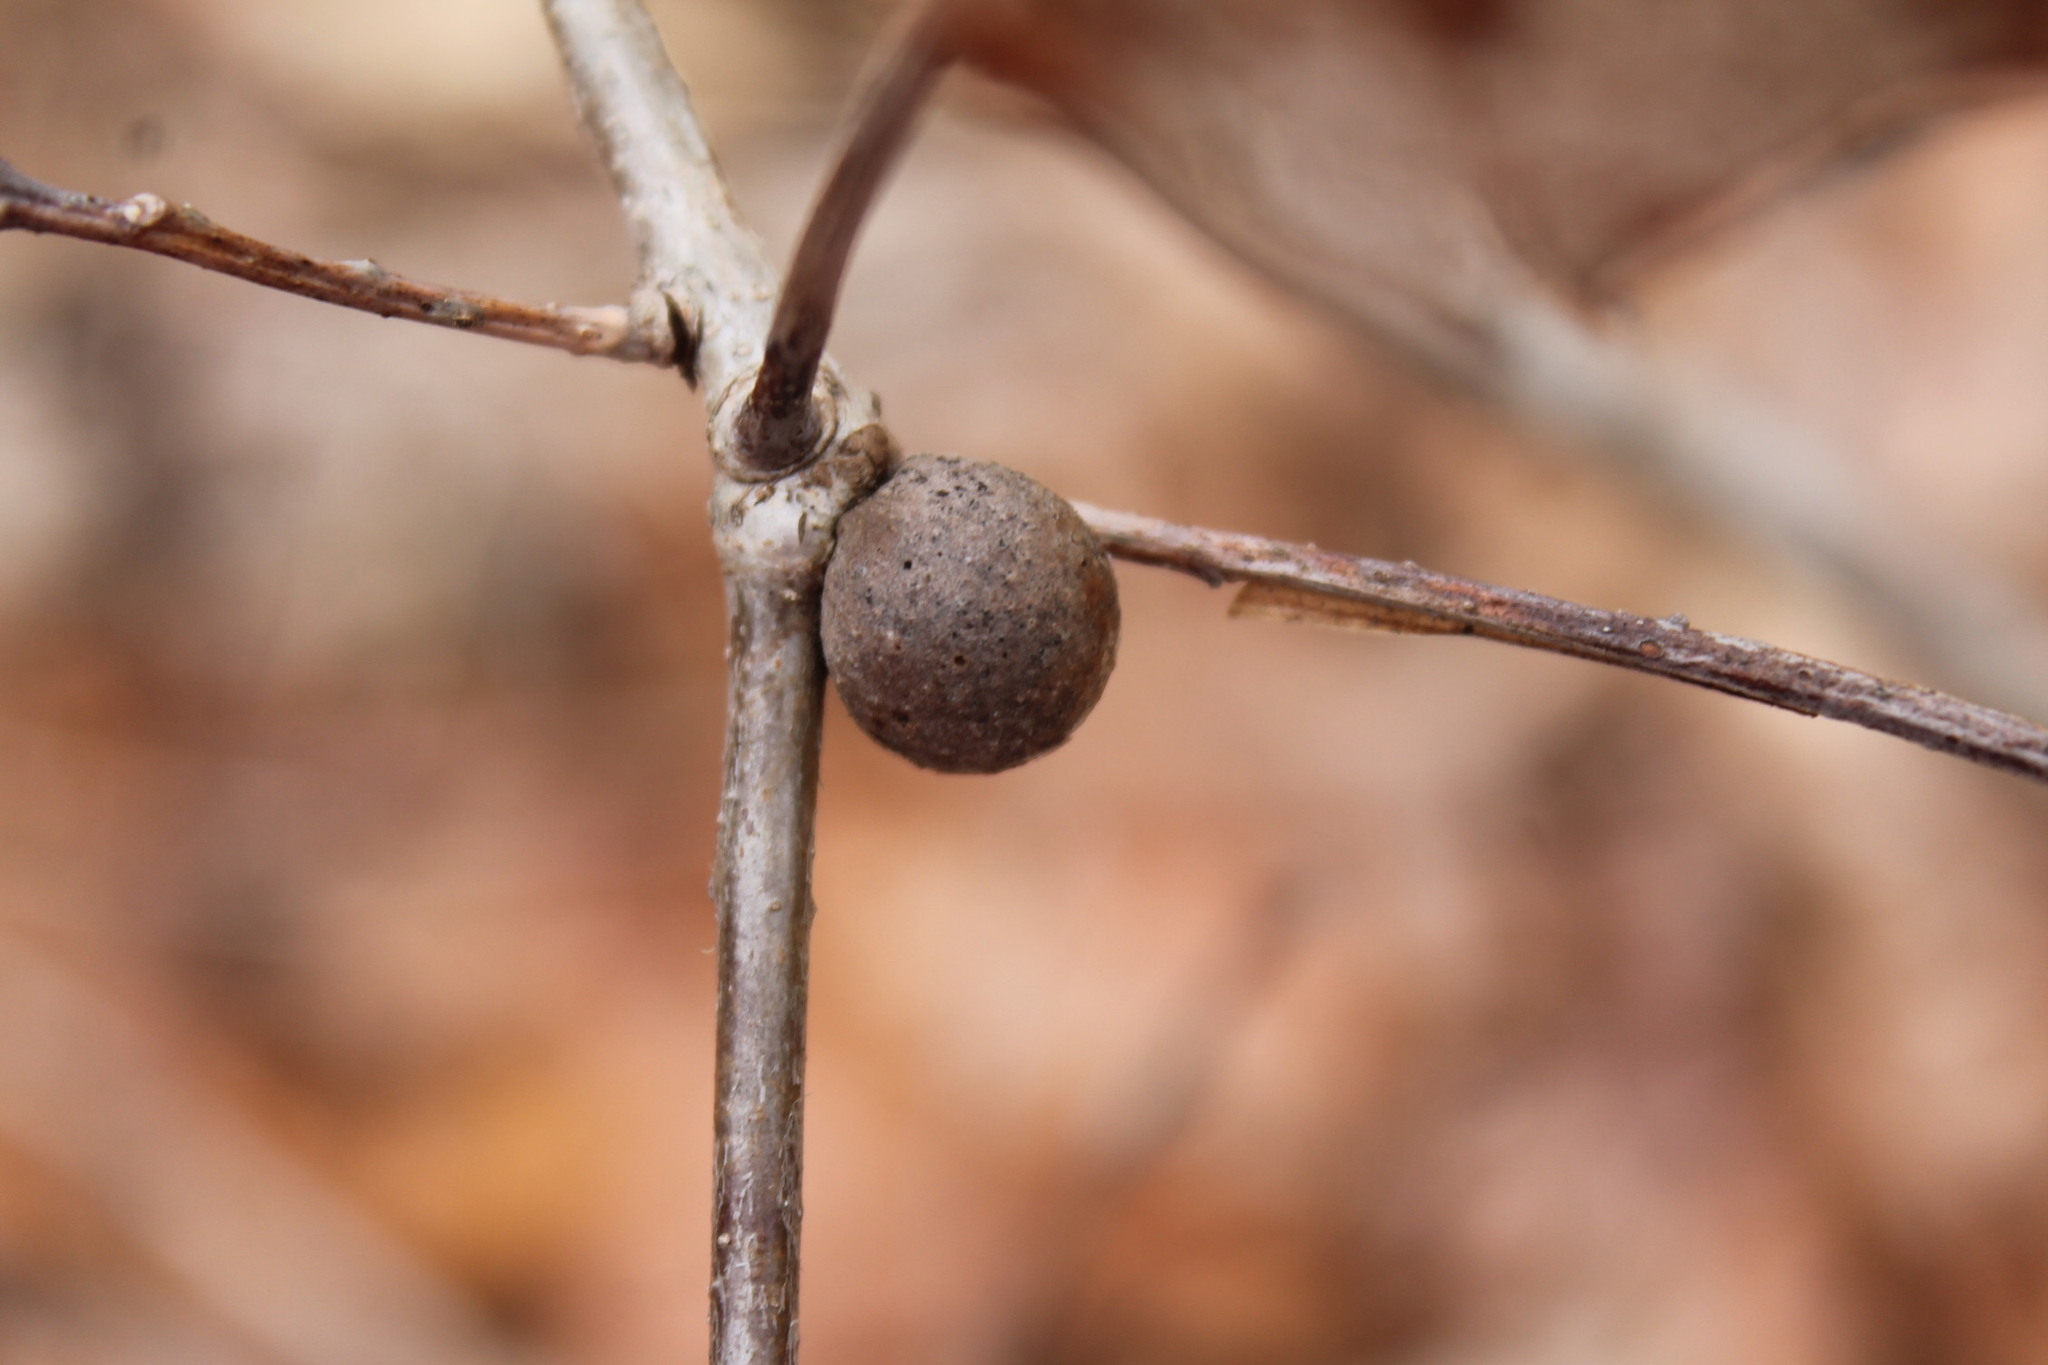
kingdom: Animalia
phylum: Arthropoda
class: Insecta
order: Hymenoptera
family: Cynipidae
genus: Disholcaspis
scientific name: Disholcaspis quercusglobulus
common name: Round bullet gall wasp
